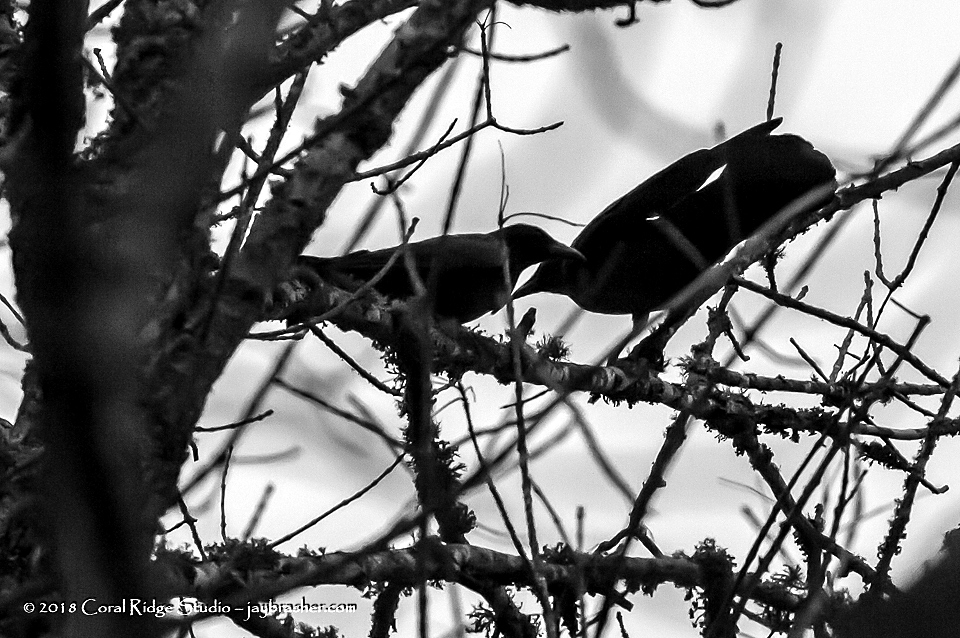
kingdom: Animalia
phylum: Chordata
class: Aves
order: Passeriformes
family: Corvidae
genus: Corvus
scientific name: Corvus brachyrhynchos
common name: American crow
